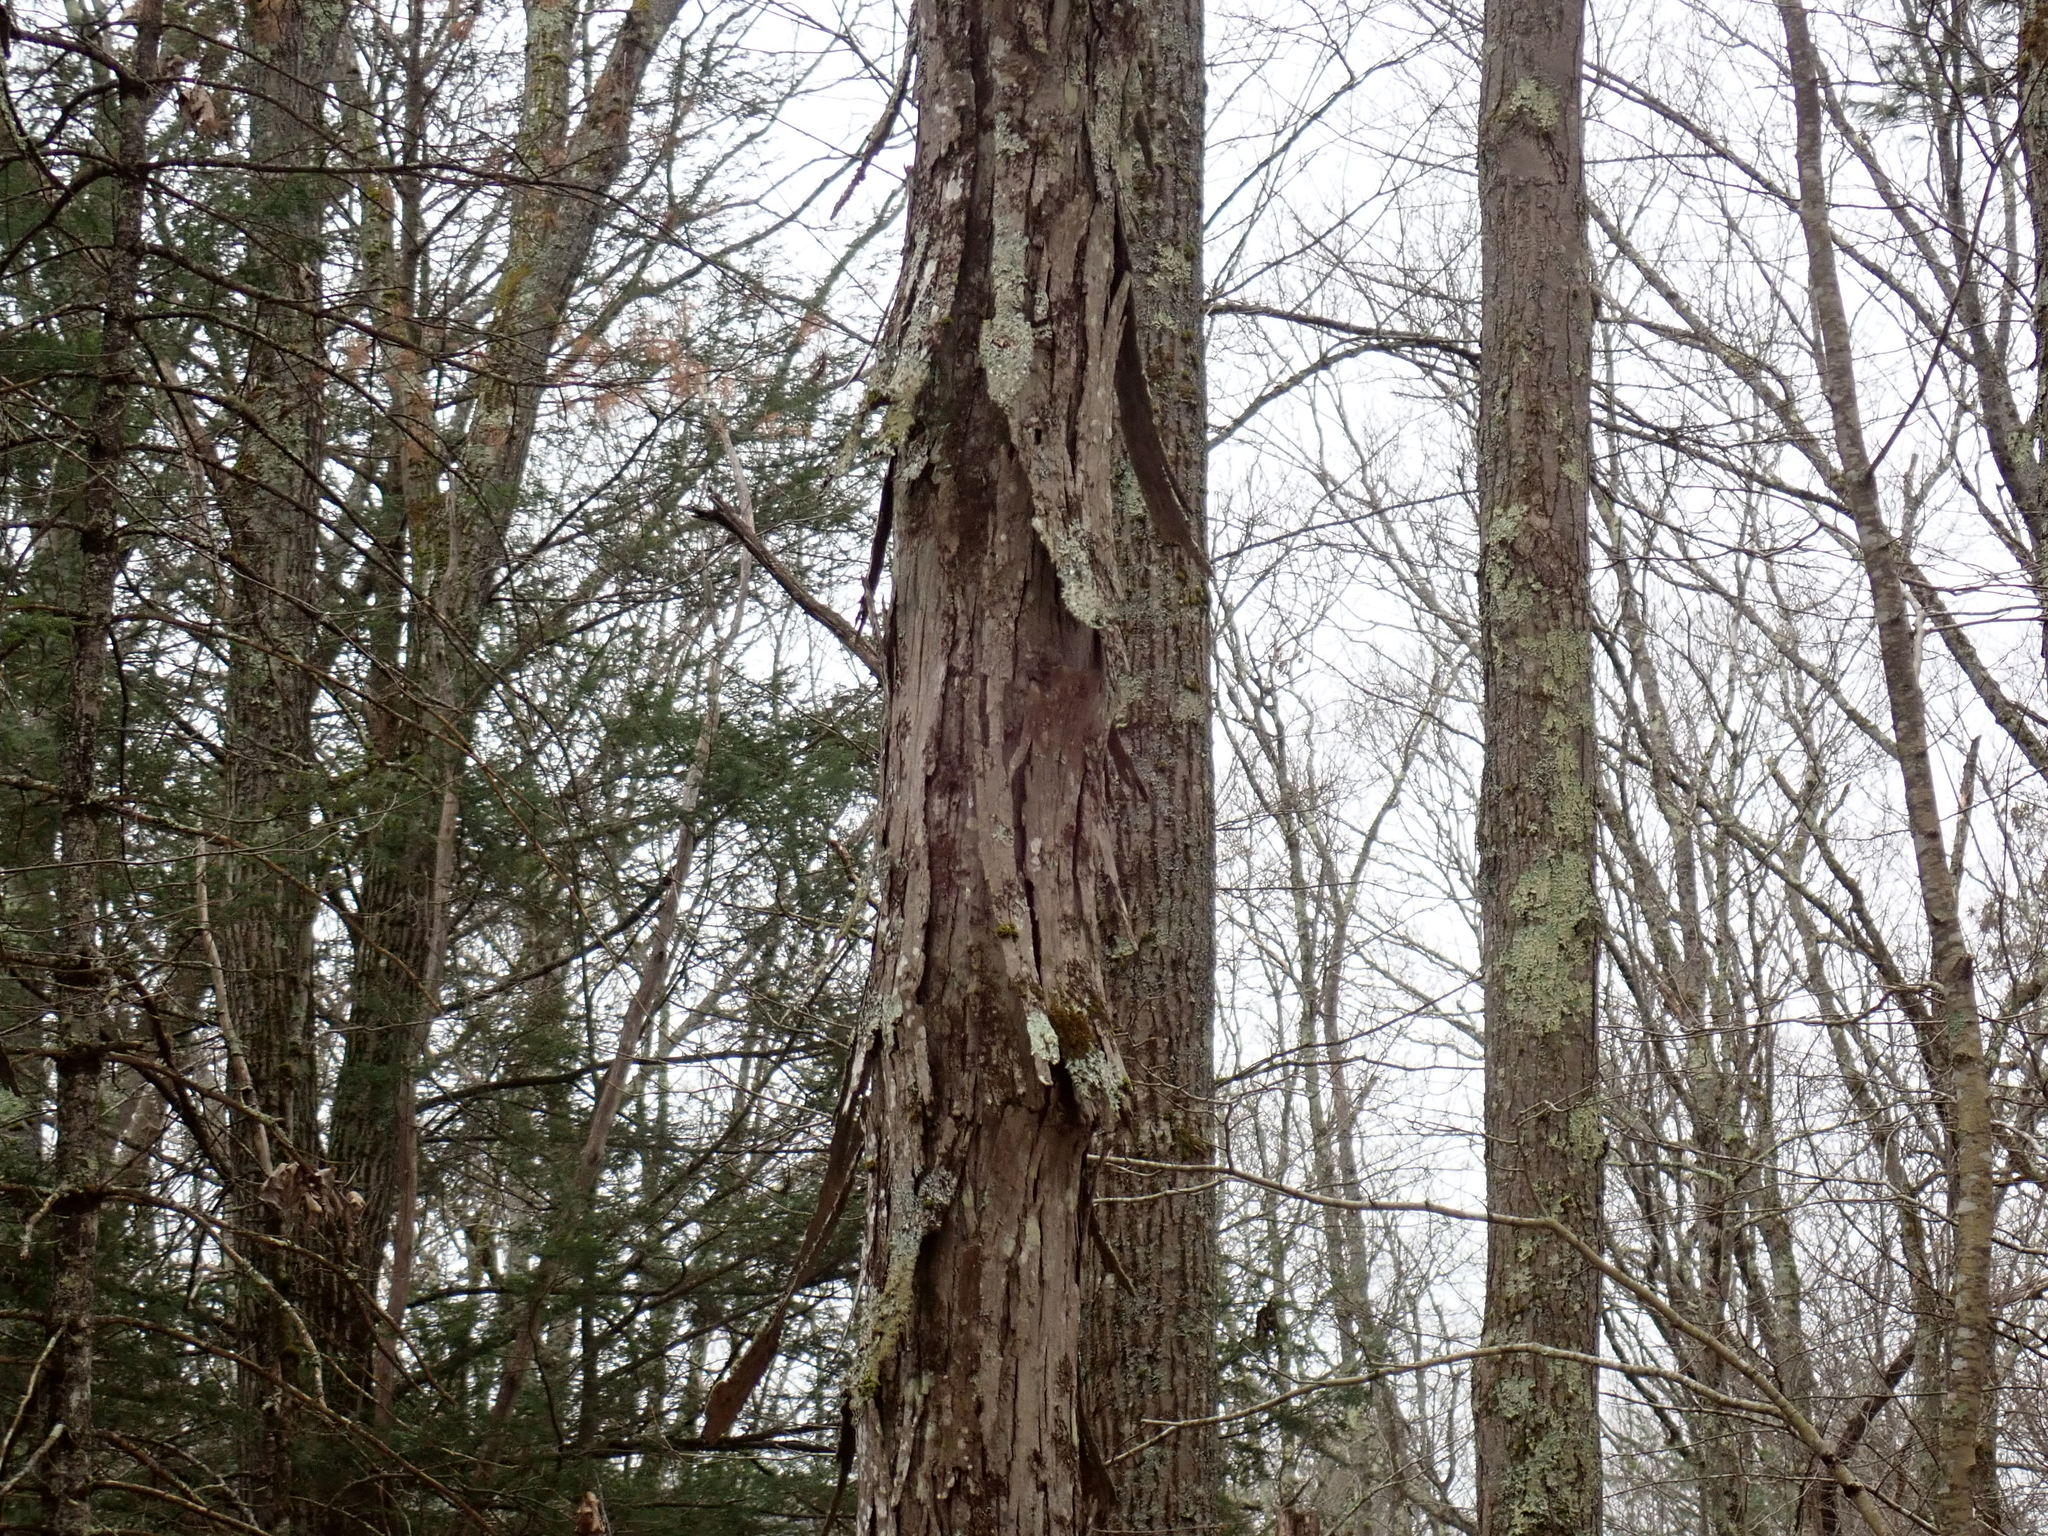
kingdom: Plantae
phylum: Tracheophyta
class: Magnoliopsida
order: Fagales
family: Juglandaceae
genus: Carya
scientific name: Carya ovata
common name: Shagbark hickory
